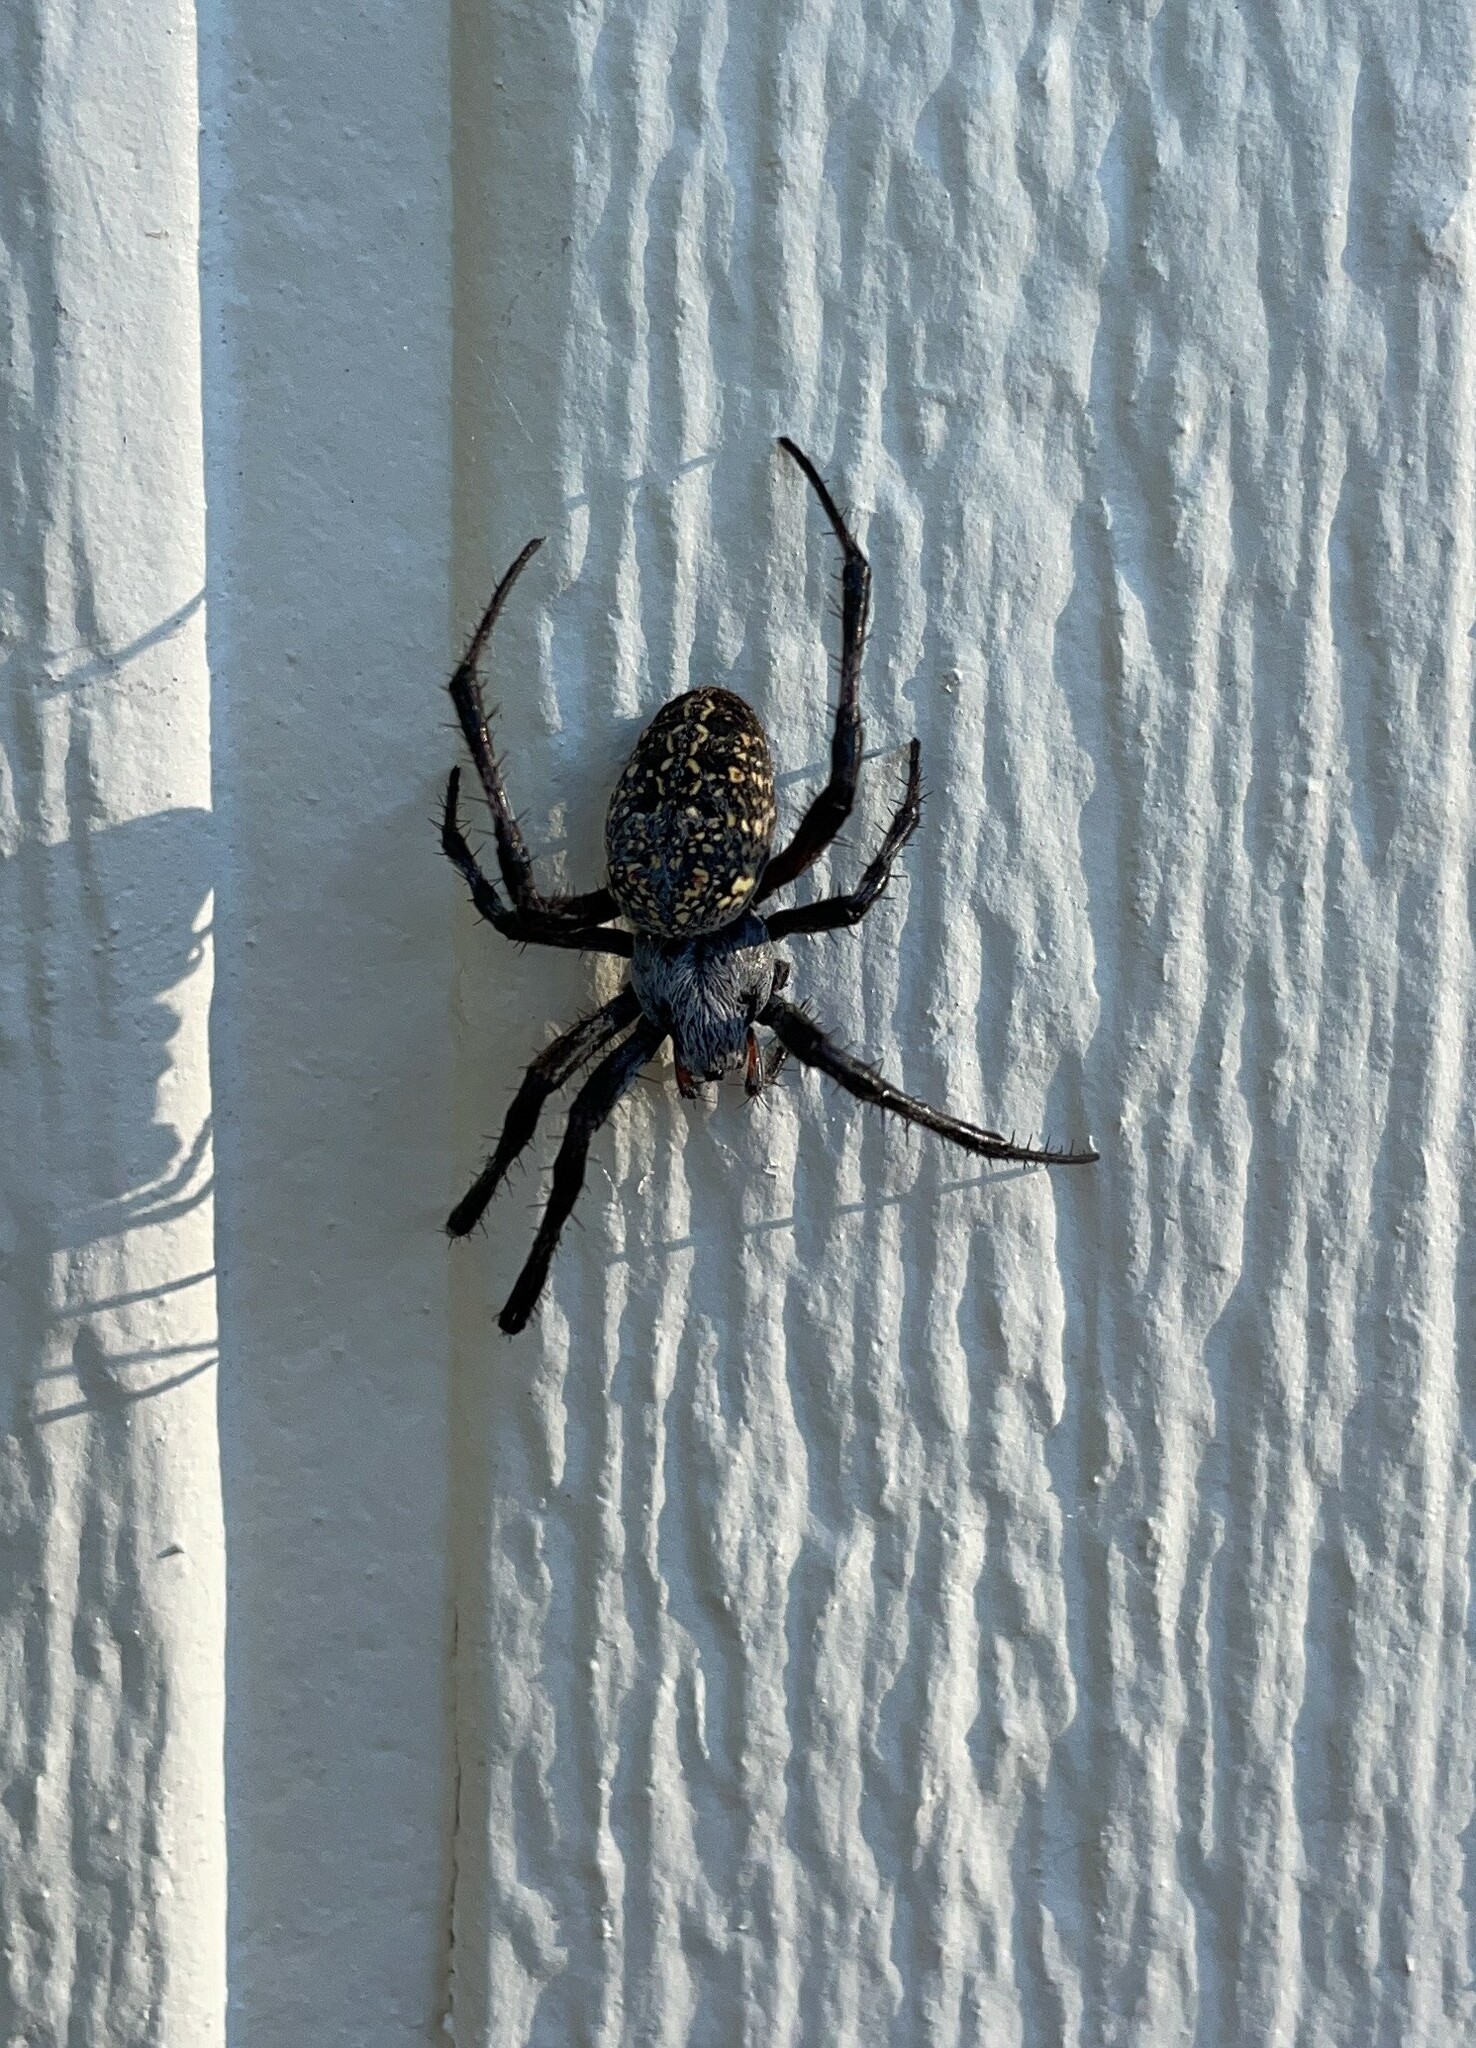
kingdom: Animalia
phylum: Arthropoda
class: Arachnida
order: Araneae
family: Araneidae
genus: Neoscona
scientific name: Neoscona oaxacensis
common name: Orb weavers
